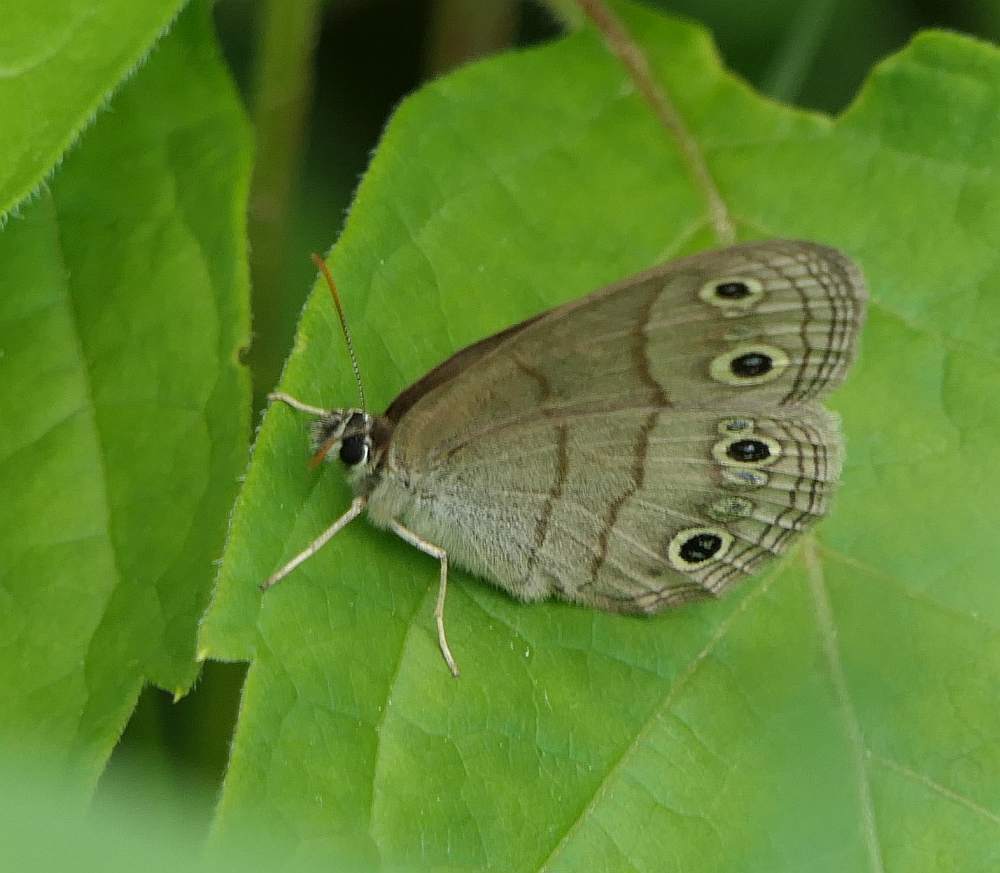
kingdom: Animalia
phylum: Arthropoda
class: Insecta
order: Lepidoptera
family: Nymphalidae
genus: Euptychia
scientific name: Euptychia cymela
